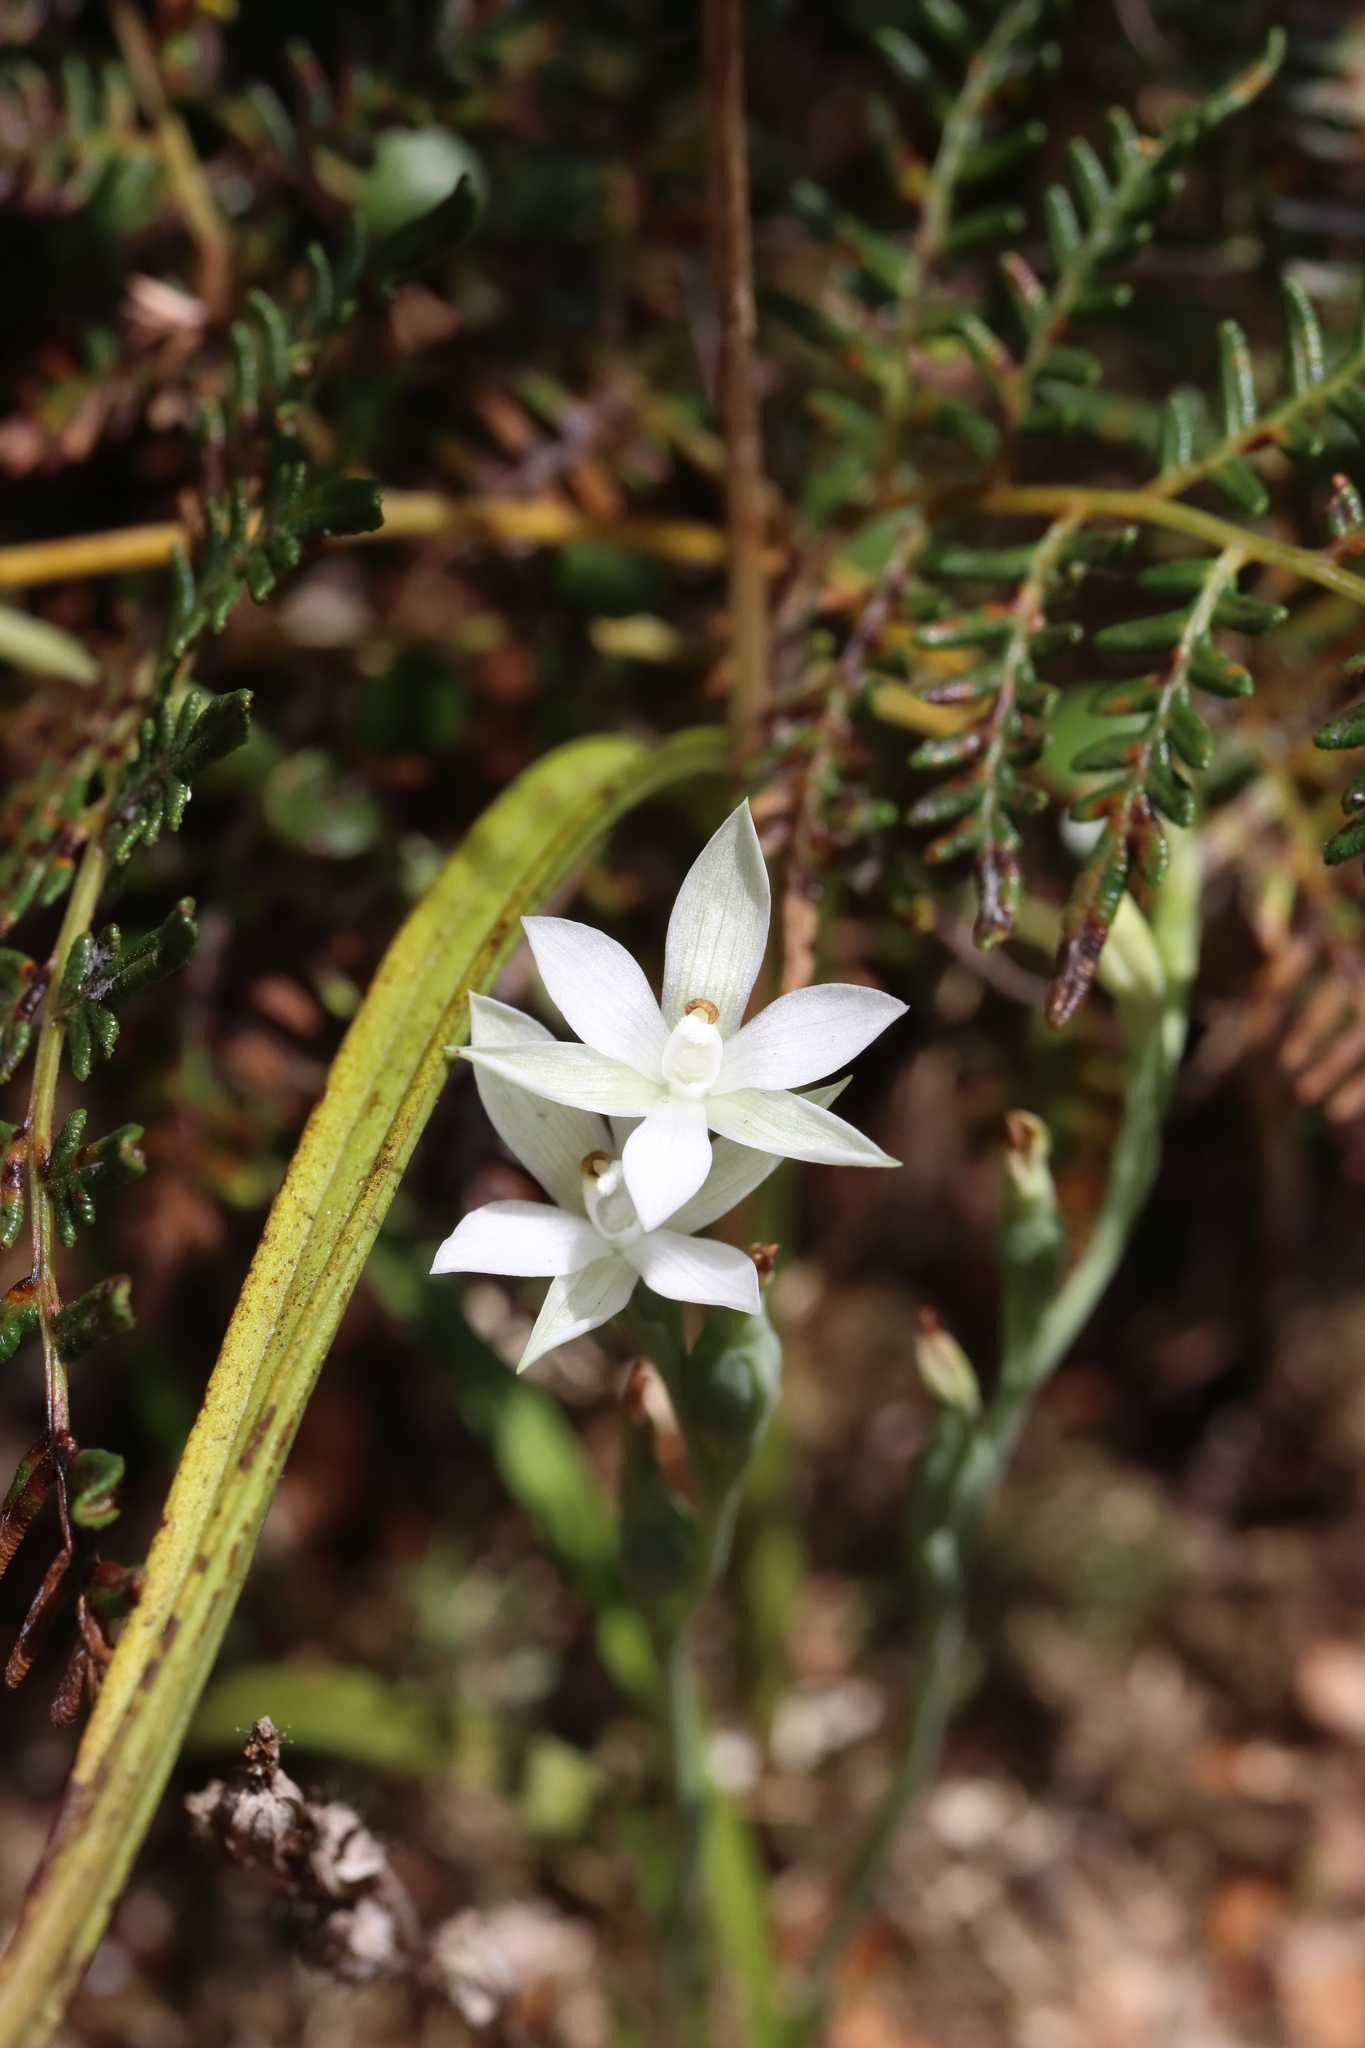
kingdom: Plantae
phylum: Tracheophyta
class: Liliopsida
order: Asparagales
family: Orchidaceae
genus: Thelymitra
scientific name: Thelymitra longifolia
